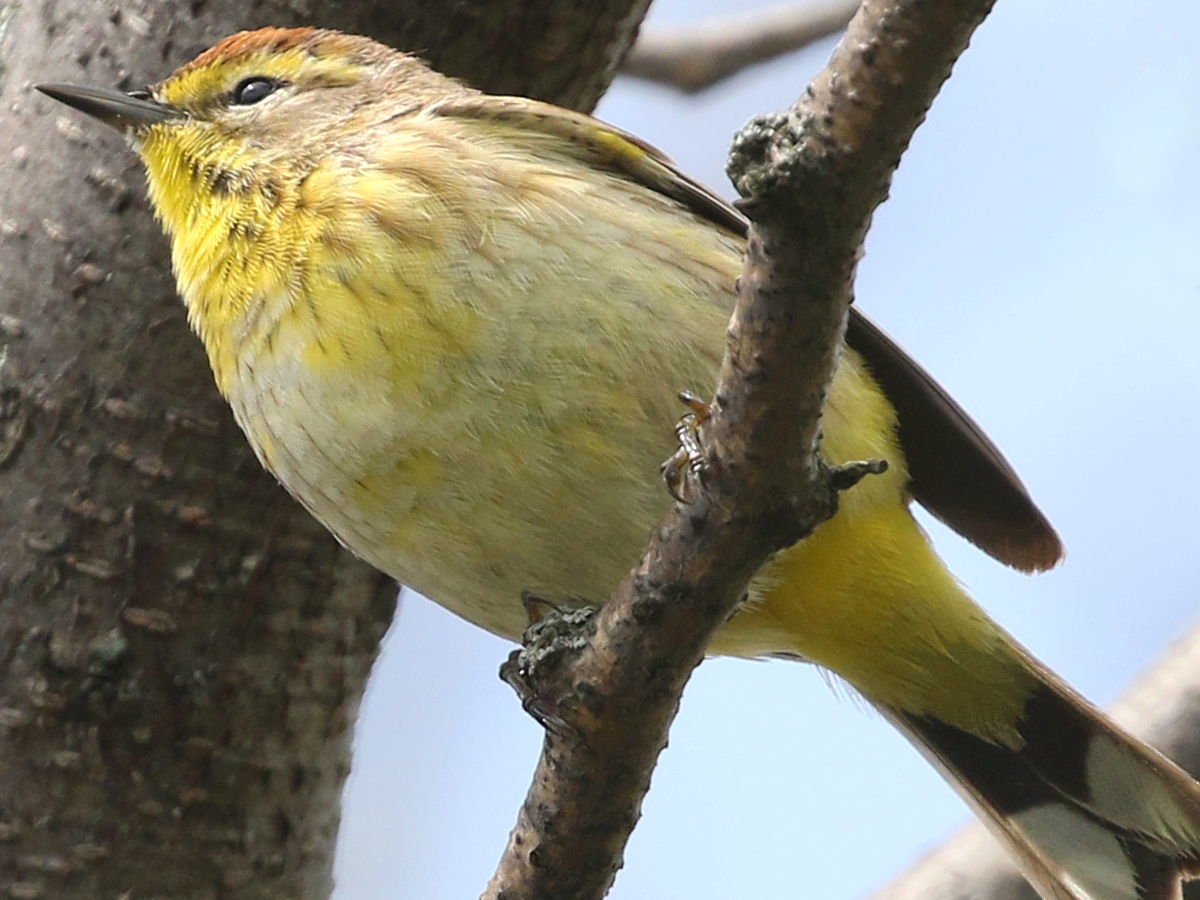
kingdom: Animalia
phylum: Chordata
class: Aves
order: Passeriformes
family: Parulidae
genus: Setophaga
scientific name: Setophaga palmarum
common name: Palm warbler
